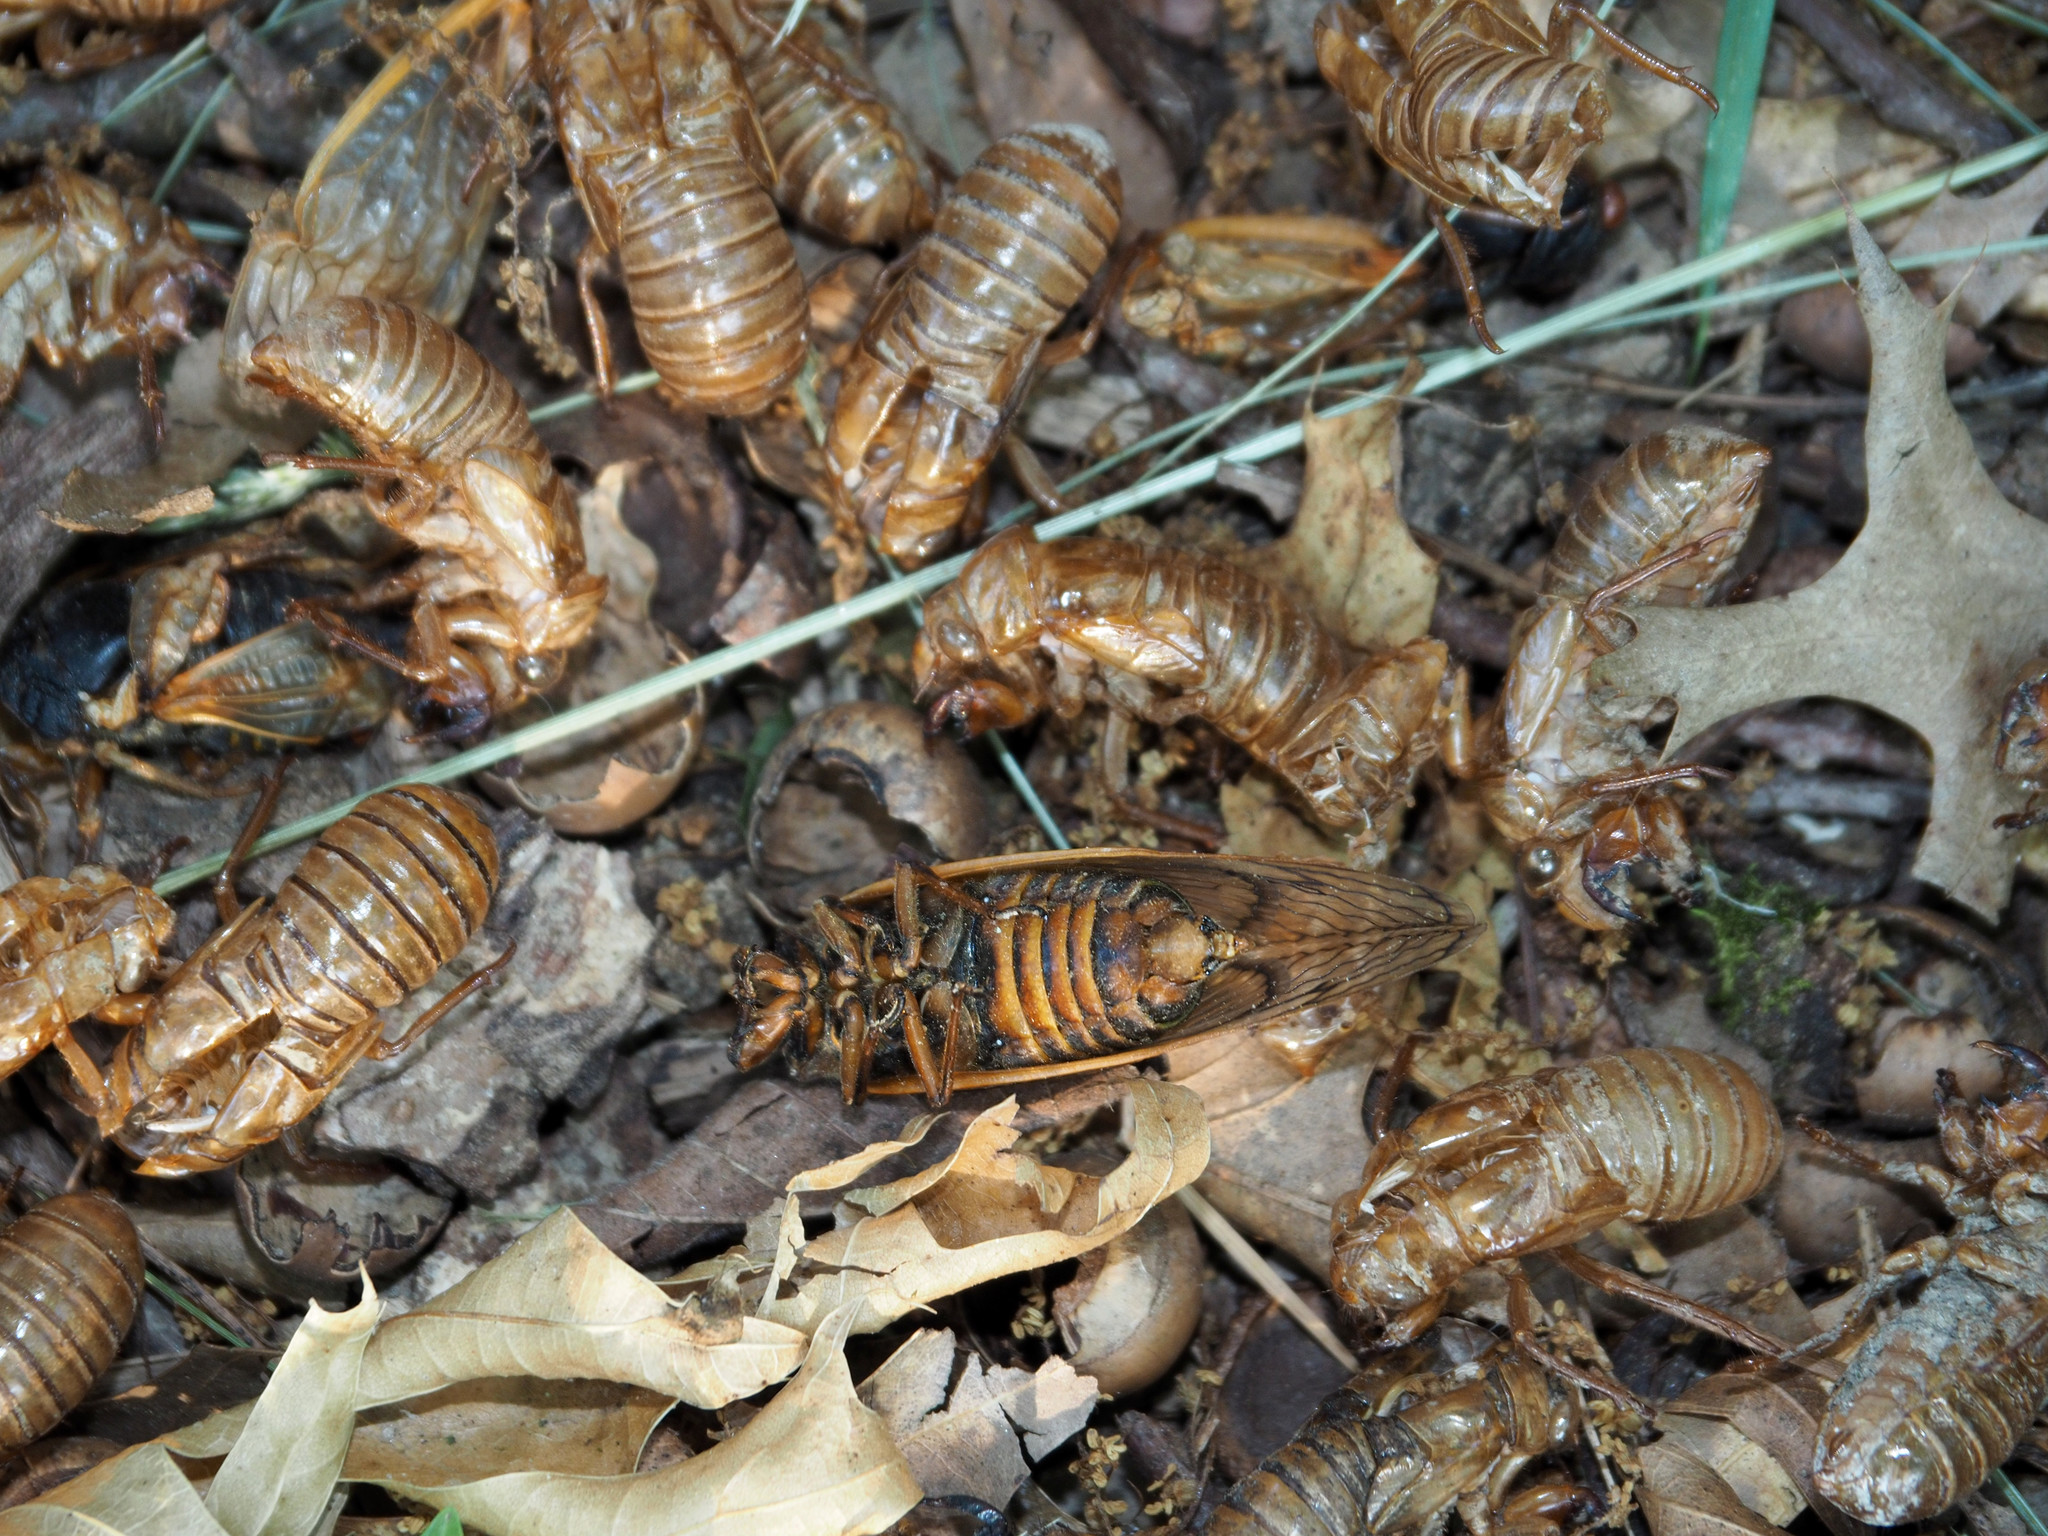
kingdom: Animalia
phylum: Arthropoda
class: Insecta
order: Hemiptera
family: Cicadidae
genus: Magicicada
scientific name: Magicicada septendecim
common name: Periodical cicada
